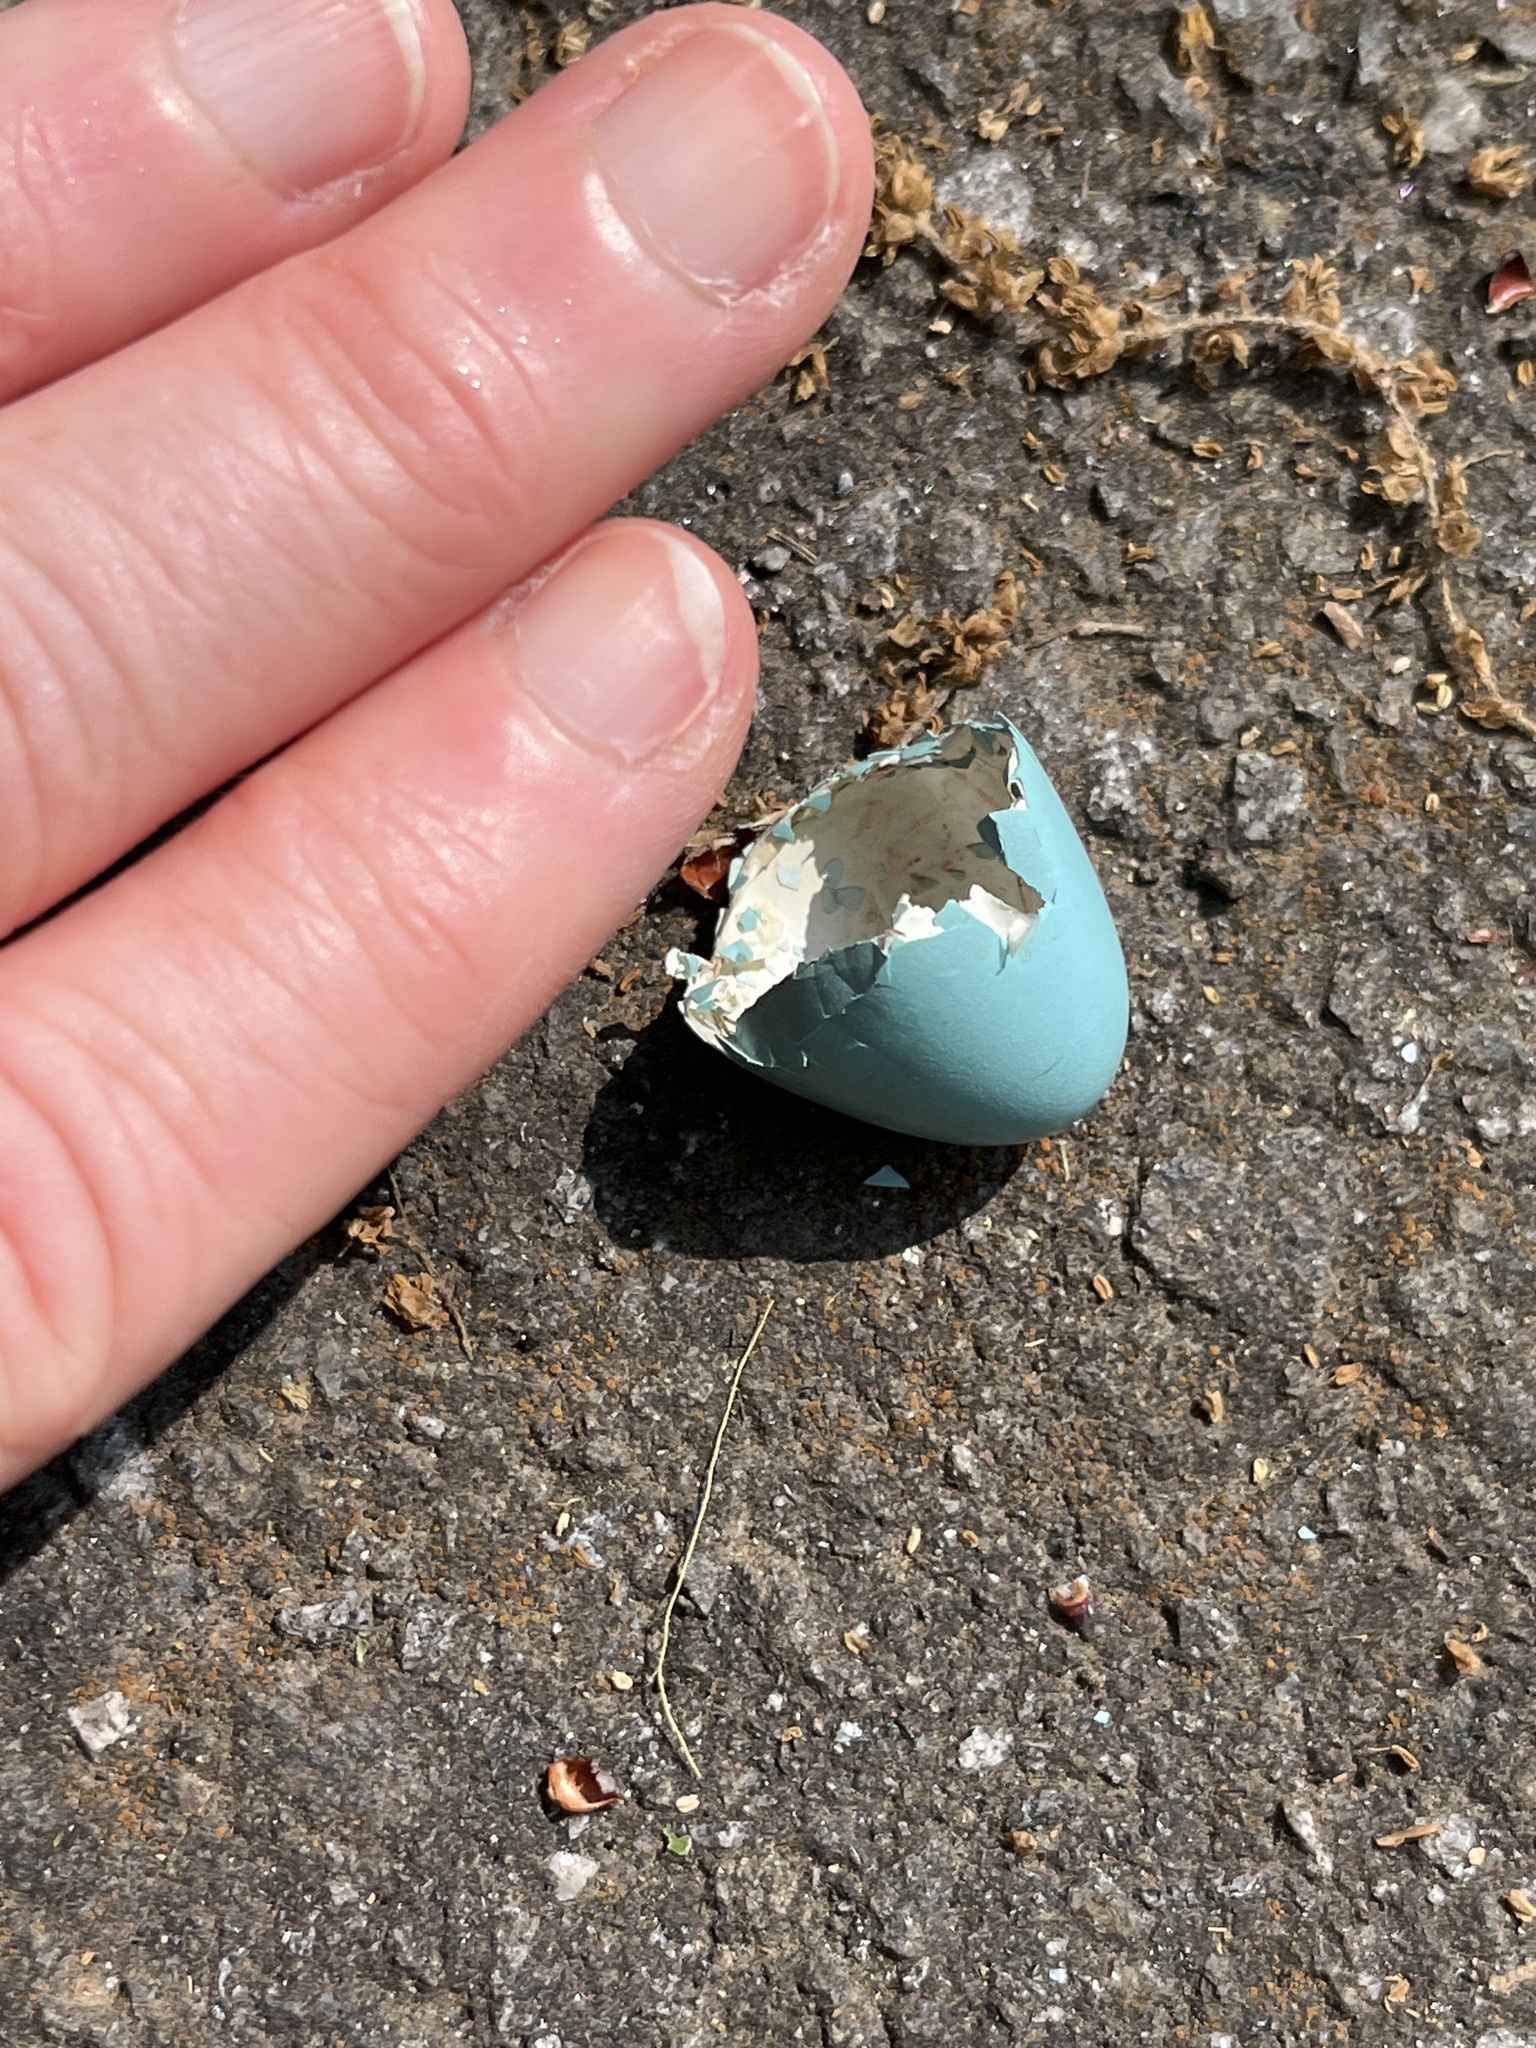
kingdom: Animalia
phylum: Chordata
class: Aves
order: Passeriformes
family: Turdidae
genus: Turdus
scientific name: Turdus migratorius
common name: American robin
